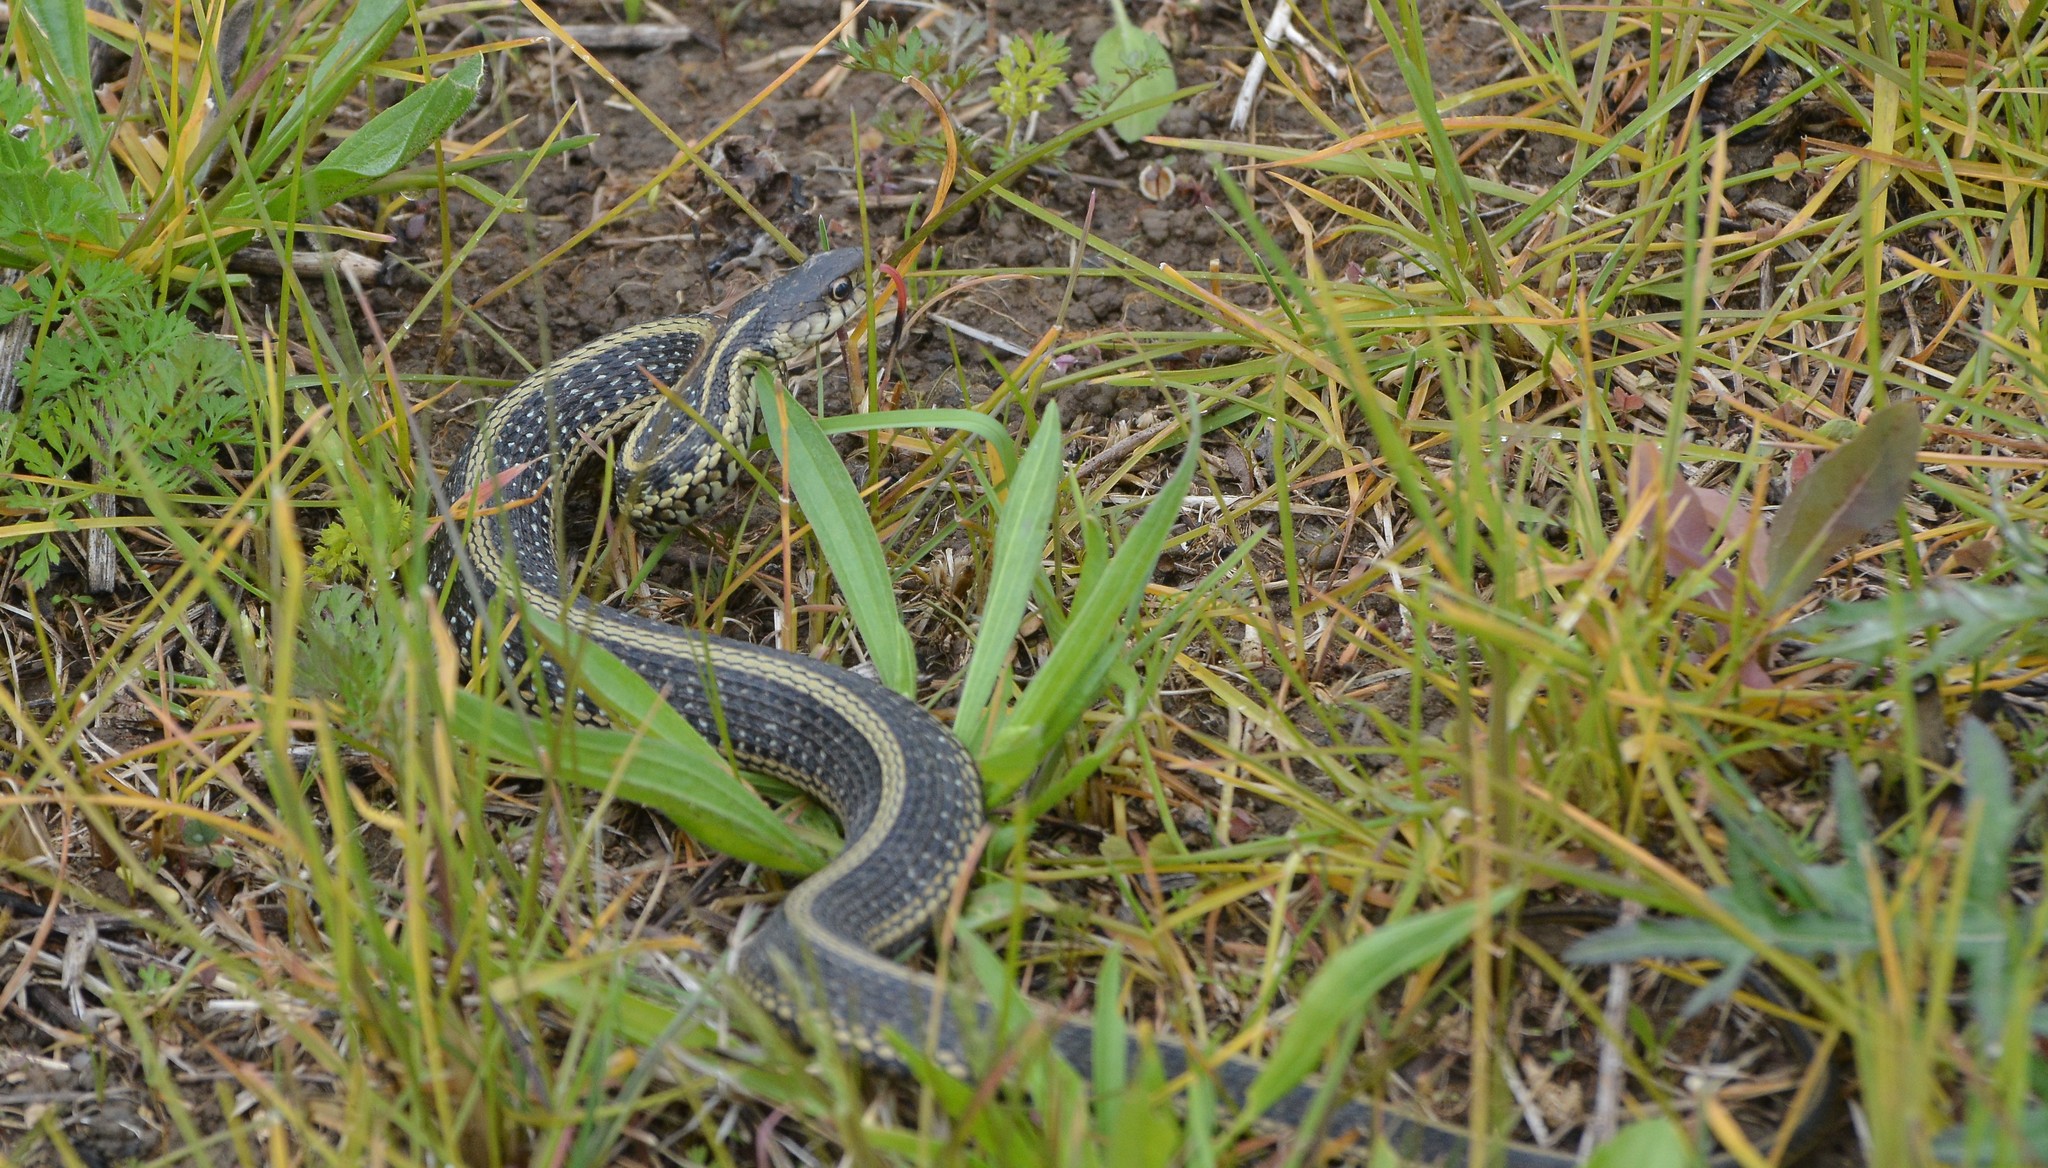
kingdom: Animalia
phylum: Chordata
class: Squamata
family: Colubridae
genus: Thamnophis
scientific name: Thamnophis sirtalis
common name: Common garter snake
